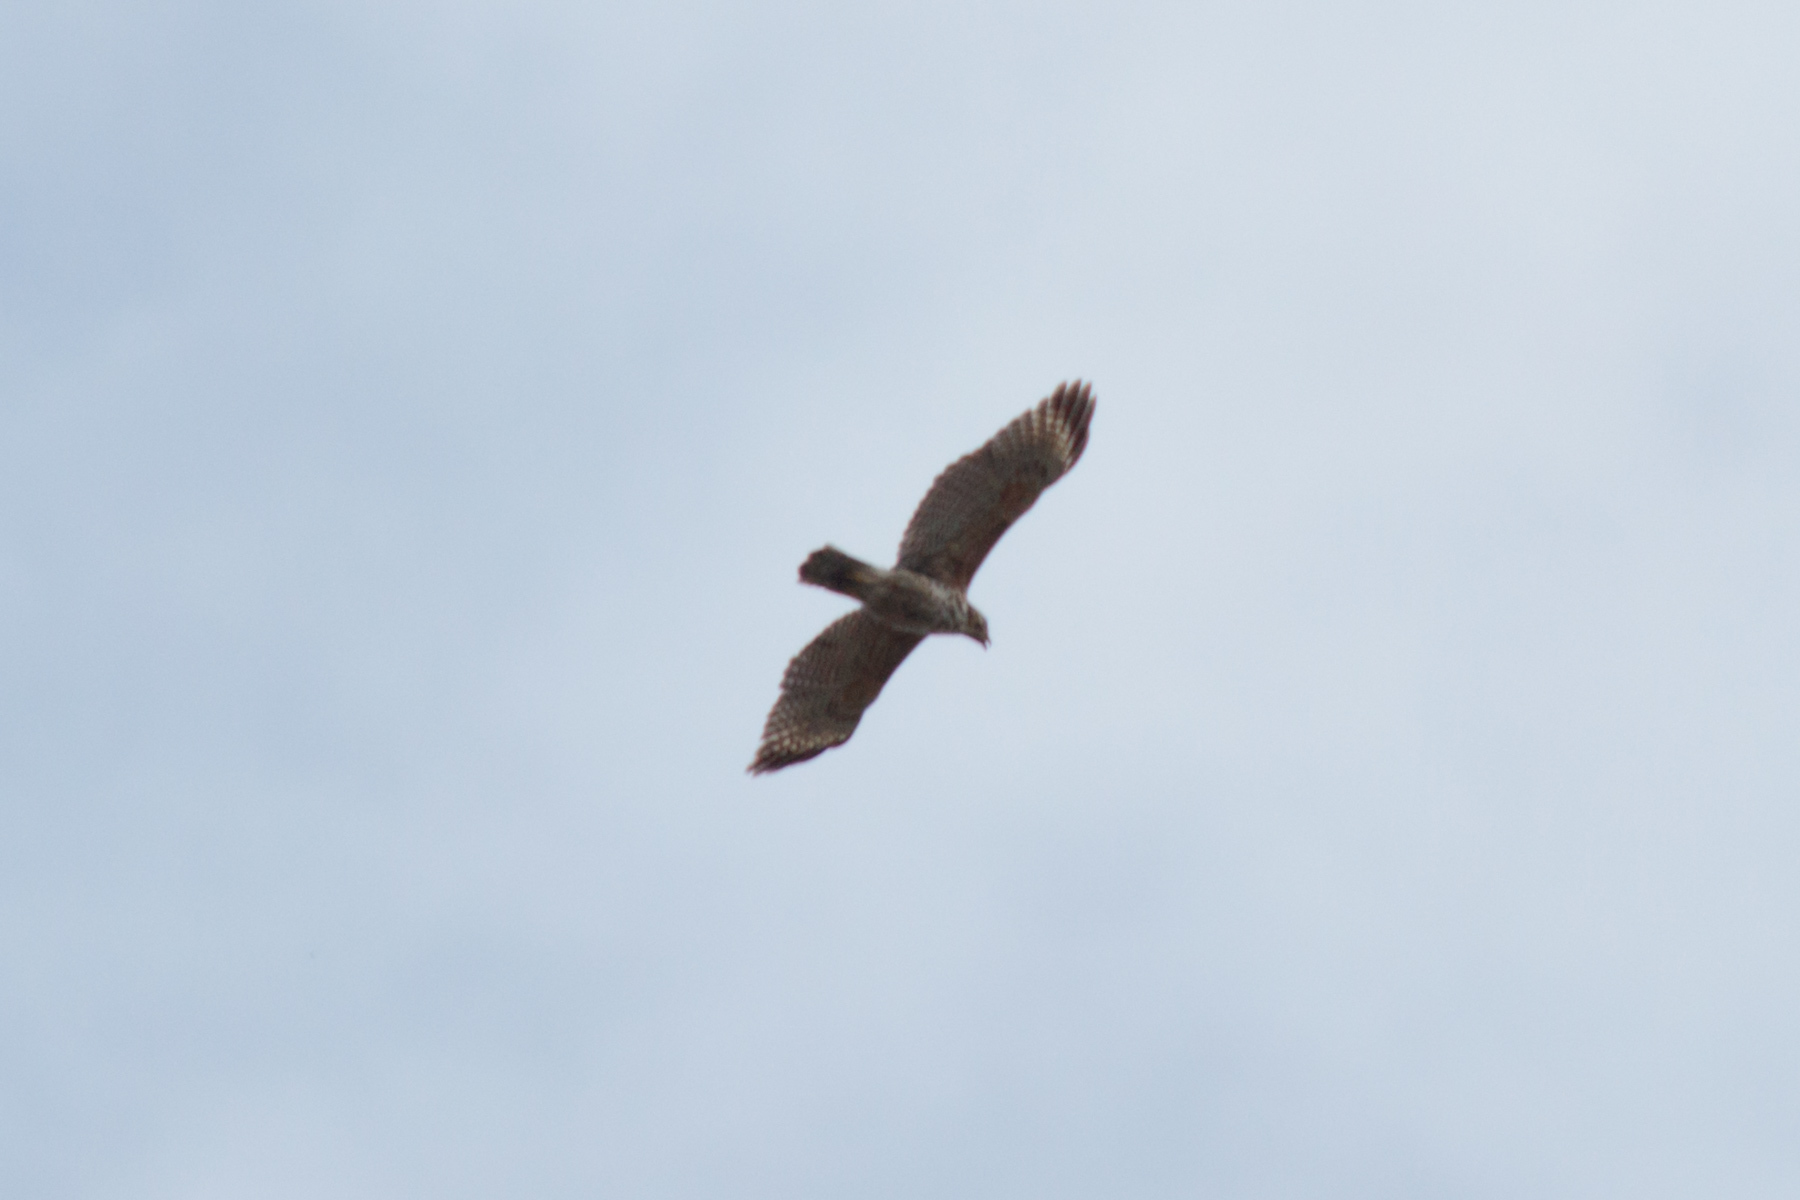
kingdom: Animalia
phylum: Chordata
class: Aves
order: Accipitriformes
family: Accipitridae
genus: Buteo
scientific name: Buteo lineatus
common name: Red-shouldered hawk
